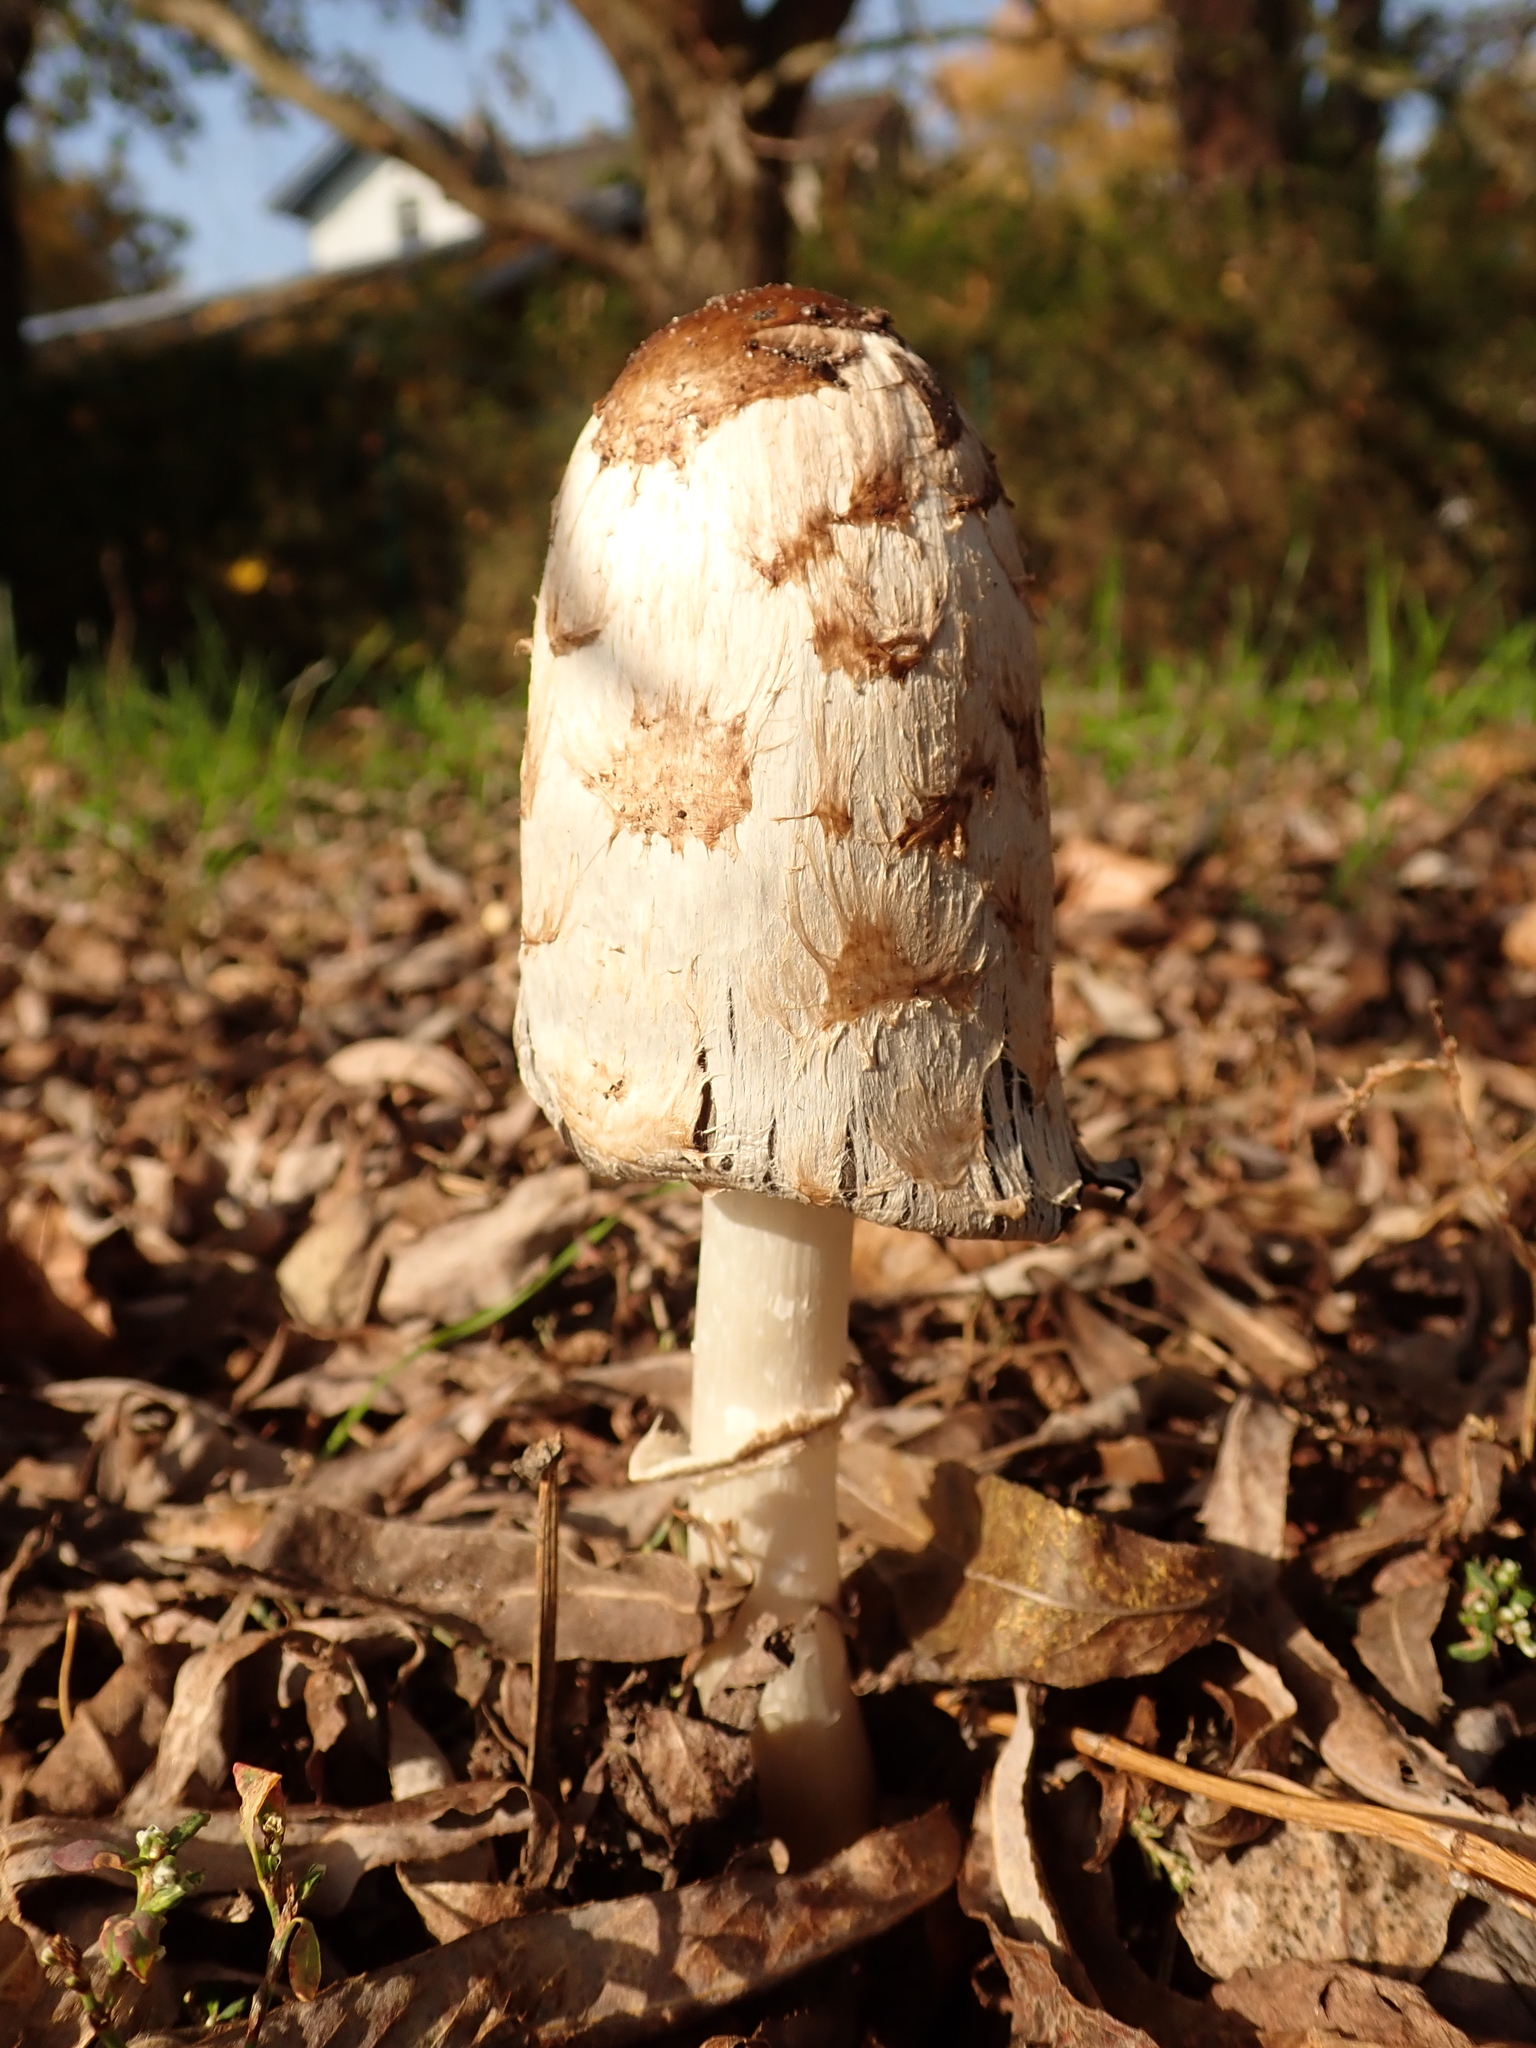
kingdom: Fungi
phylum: Basidiomycota
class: Agaricomycetes
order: Agaricales
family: Agaricaceae
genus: Coprinus
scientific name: Coprinus comatus
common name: Lawyer's wig
